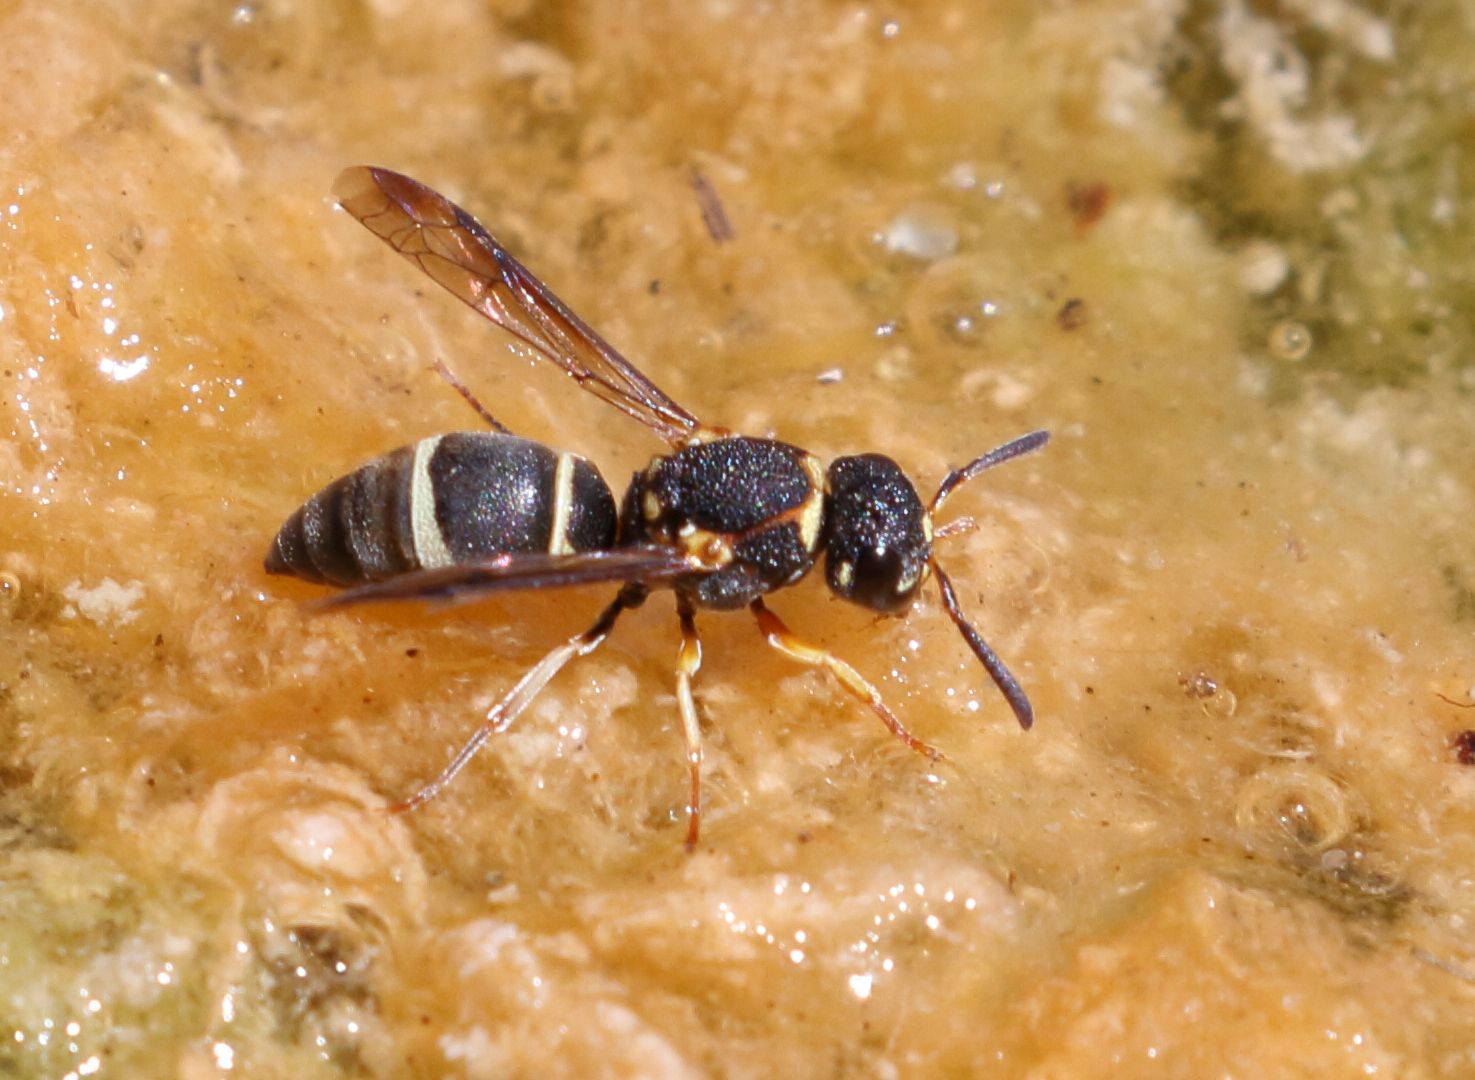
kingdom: Animalia
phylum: Arthropoda
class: Insecta
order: Hymenoptera
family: Eumenidae
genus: Antepipona
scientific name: Antepipona
